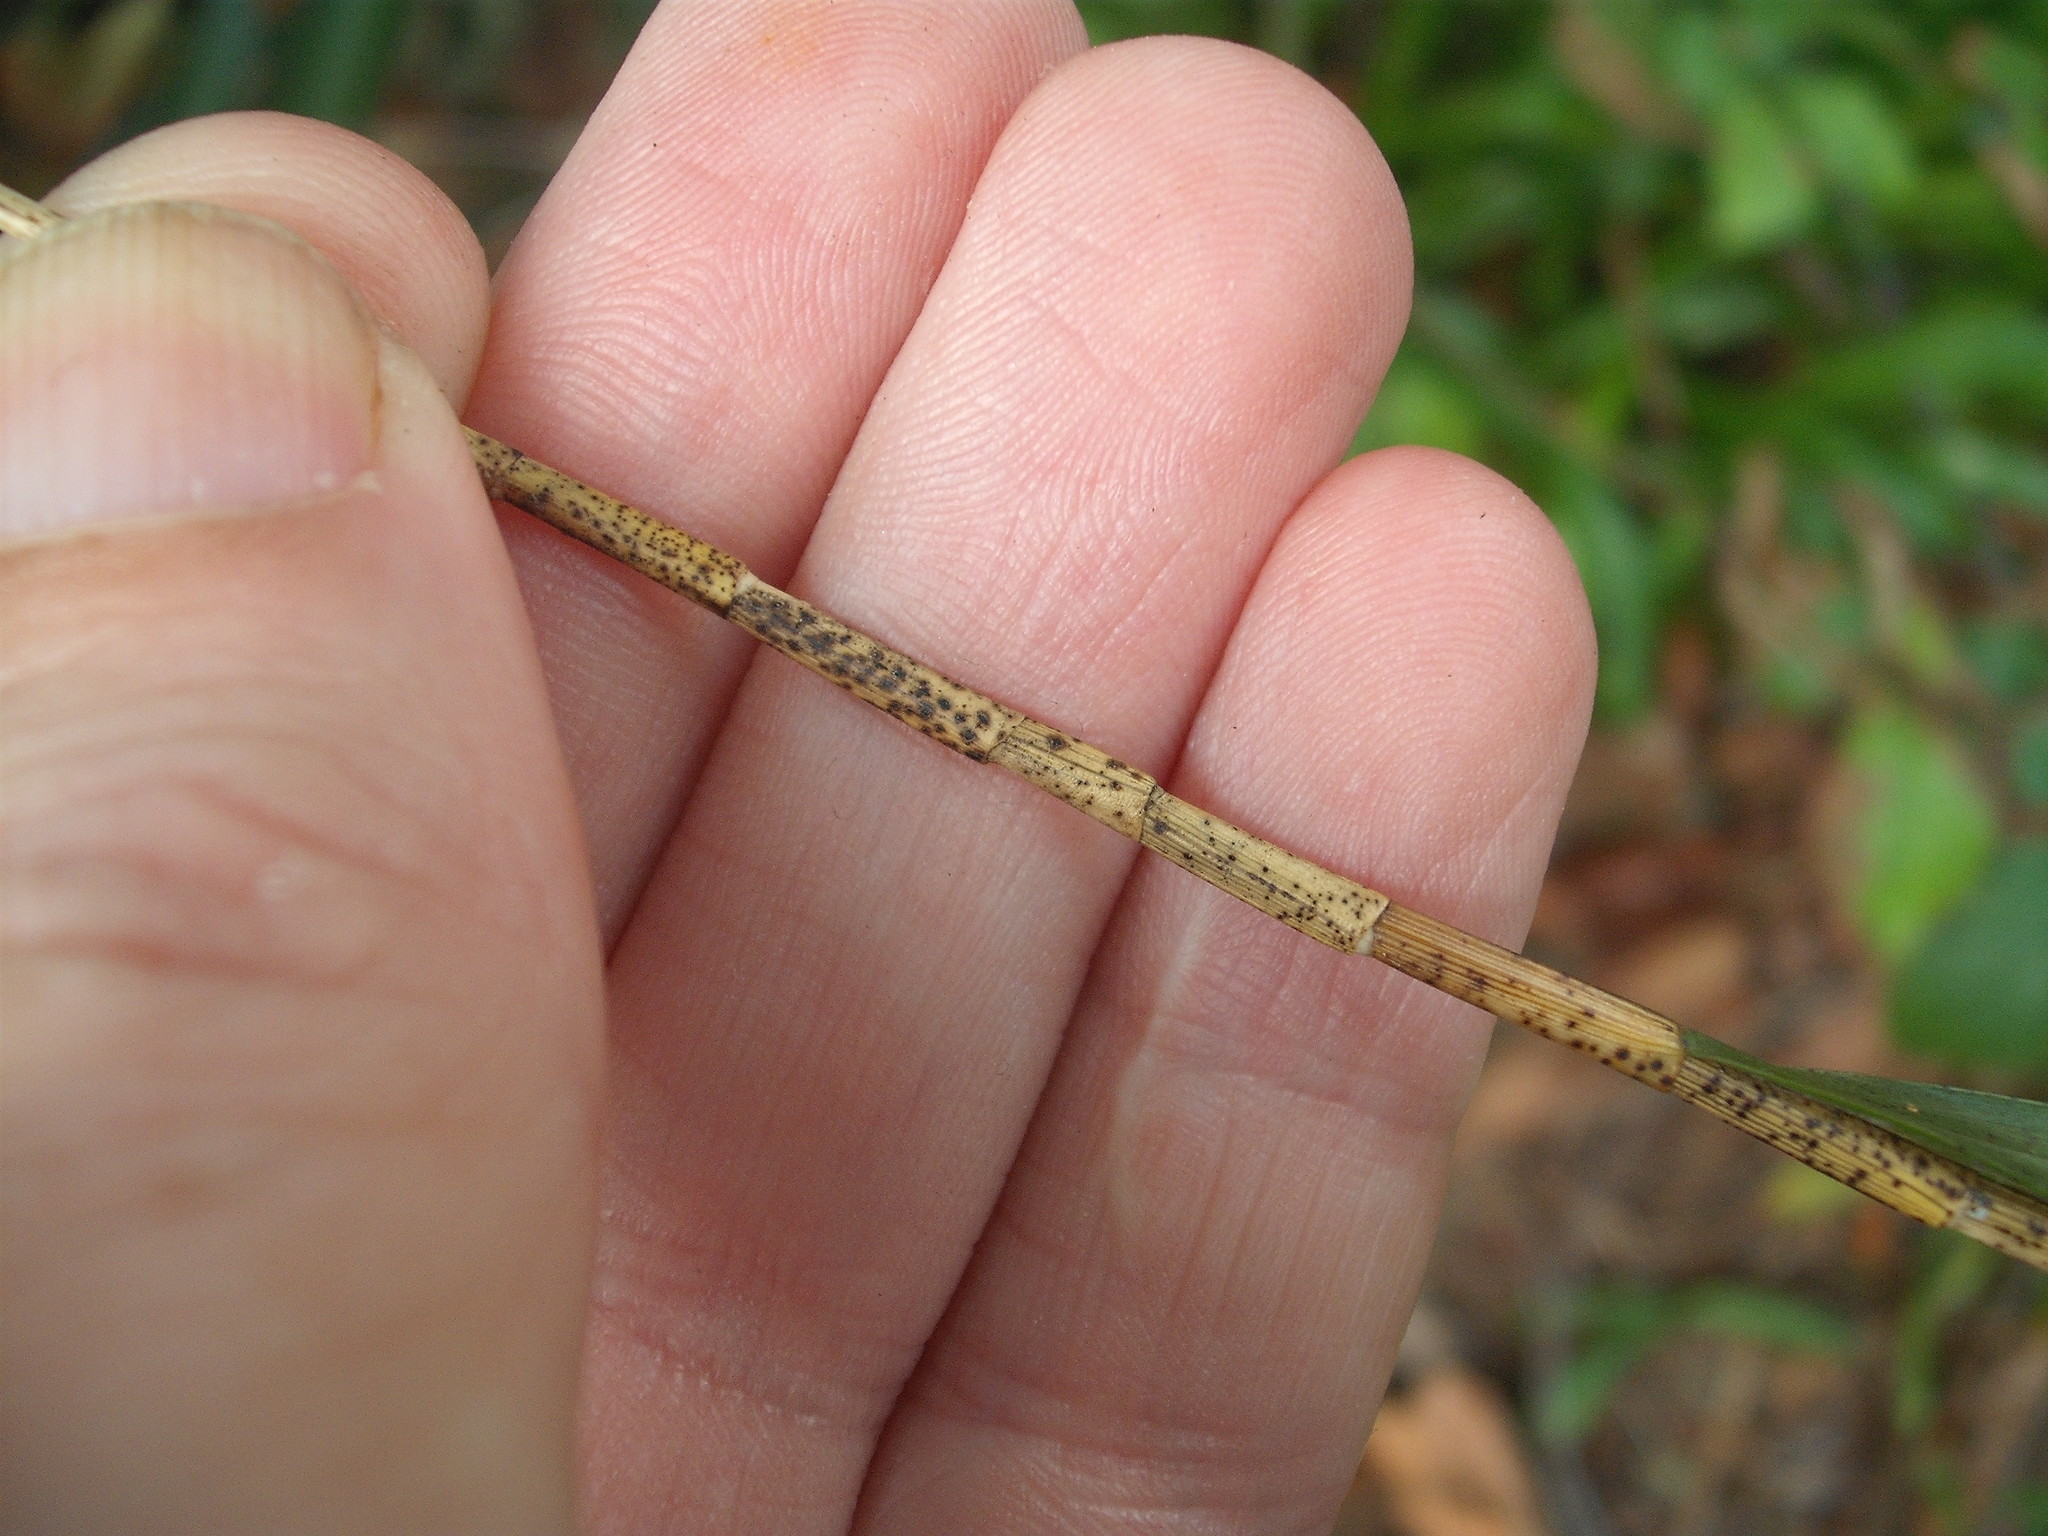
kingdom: Plantae
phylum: Tracheophyta
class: Liliopsida
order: Asparagales
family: Orchidaceae
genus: Earina
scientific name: Earina aestivalis
